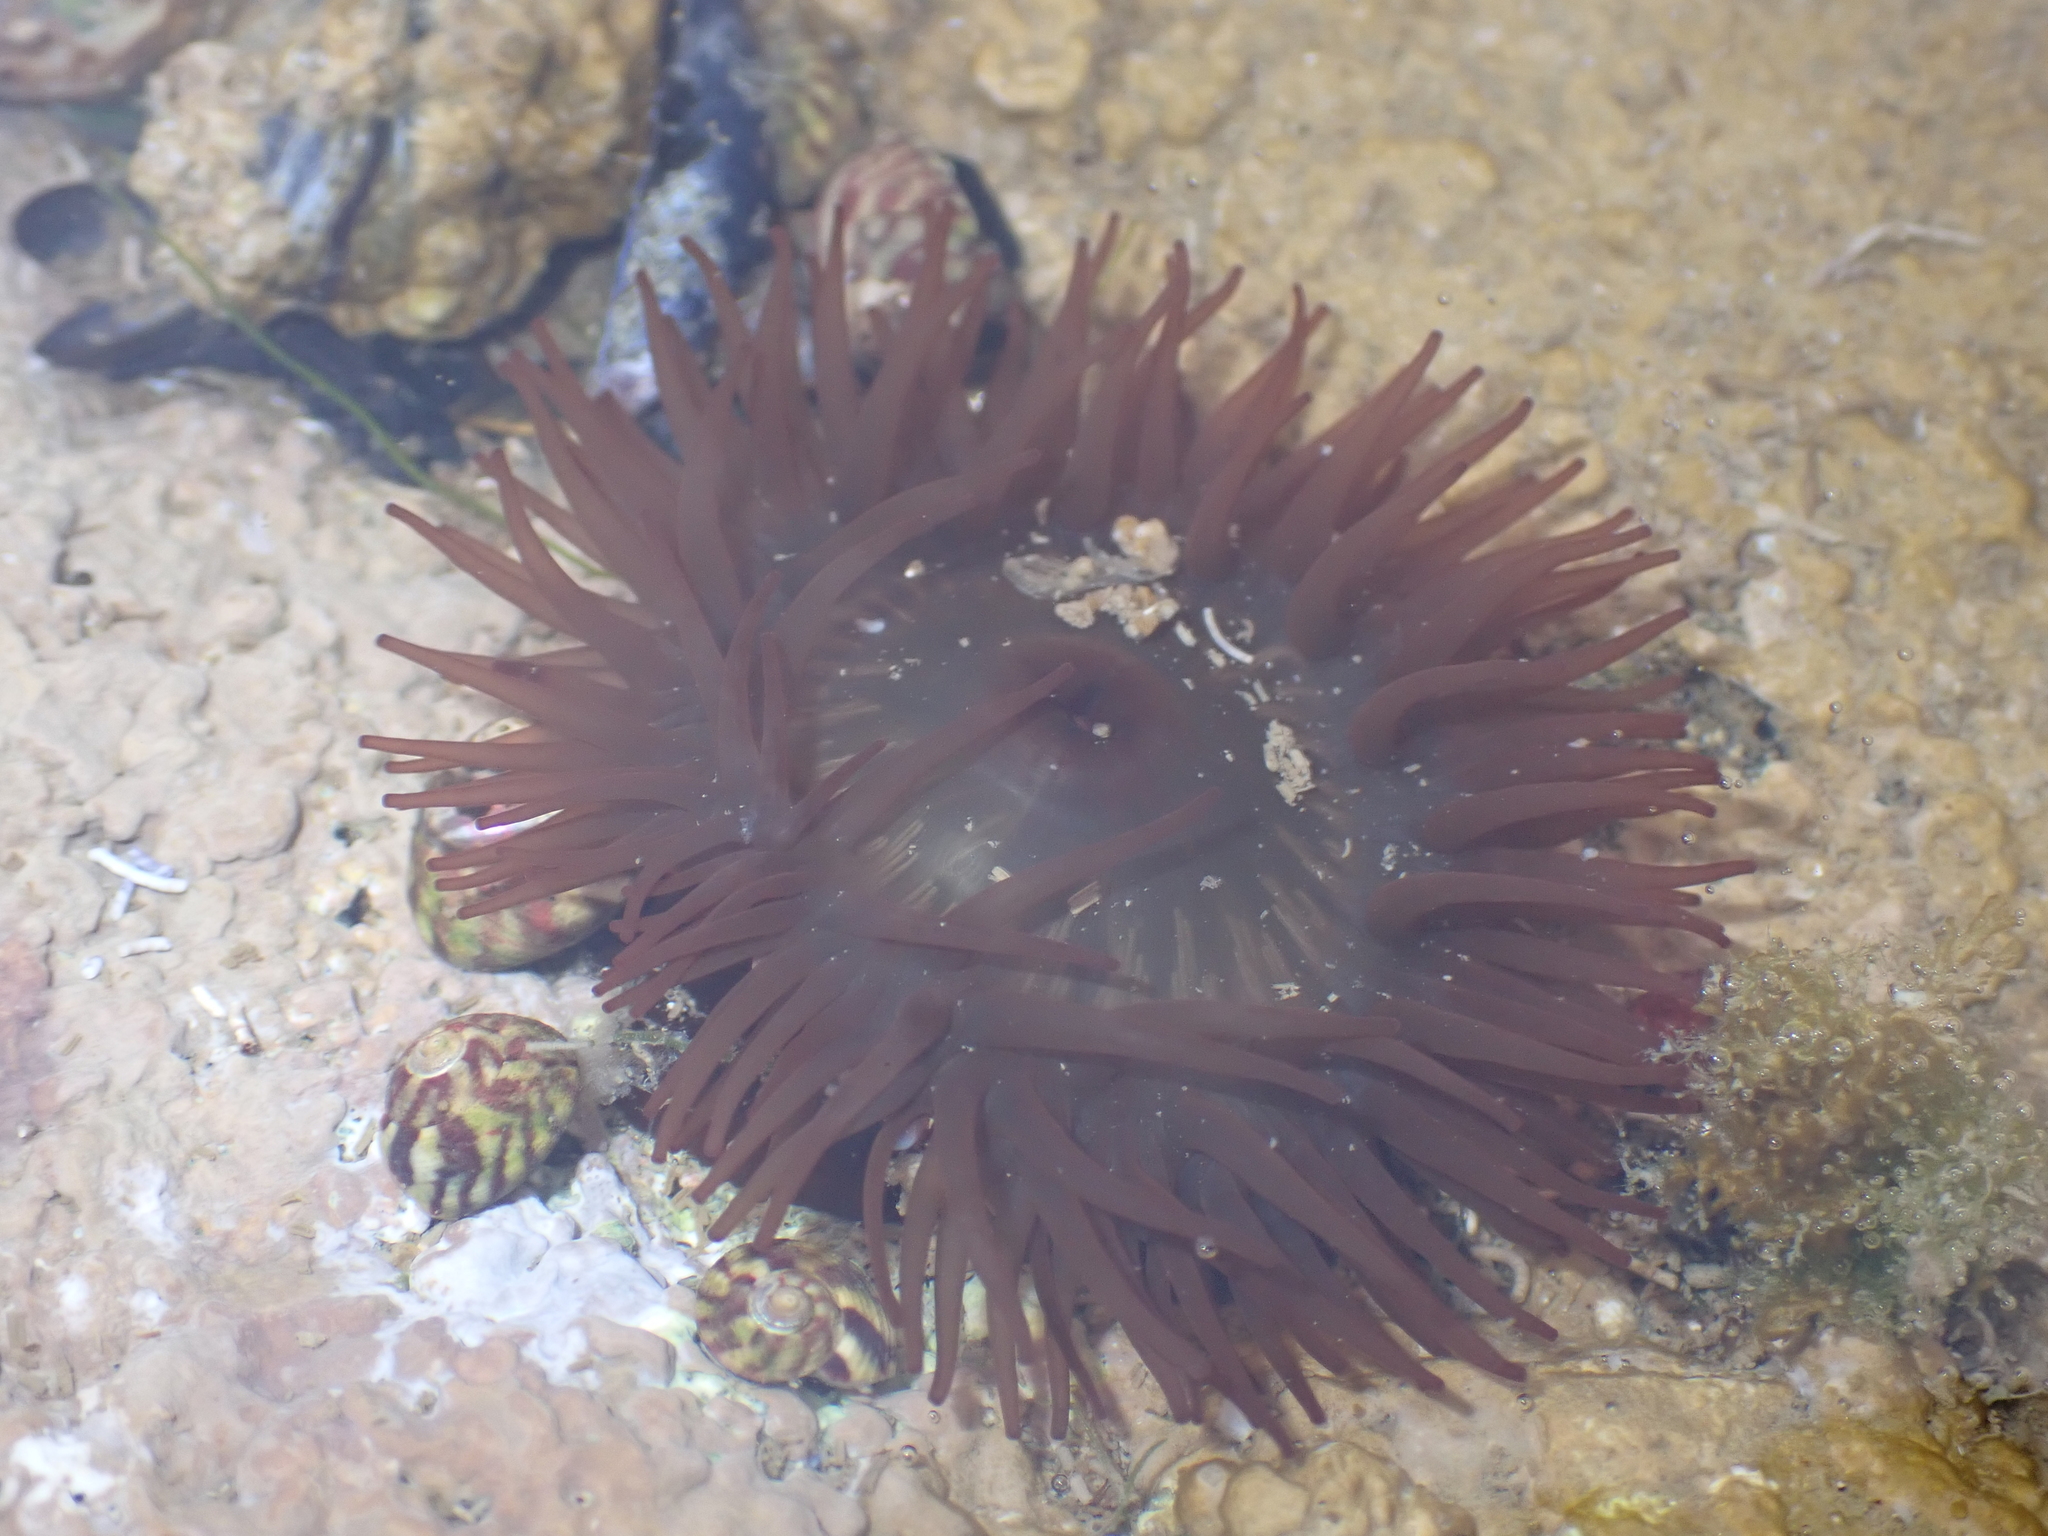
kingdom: Animalia
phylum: Cnidaria
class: Anthozoa
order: Actiniaria
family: Actiniidae
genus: Actinia
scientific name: Actinia equina
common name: Beadlet anemone
